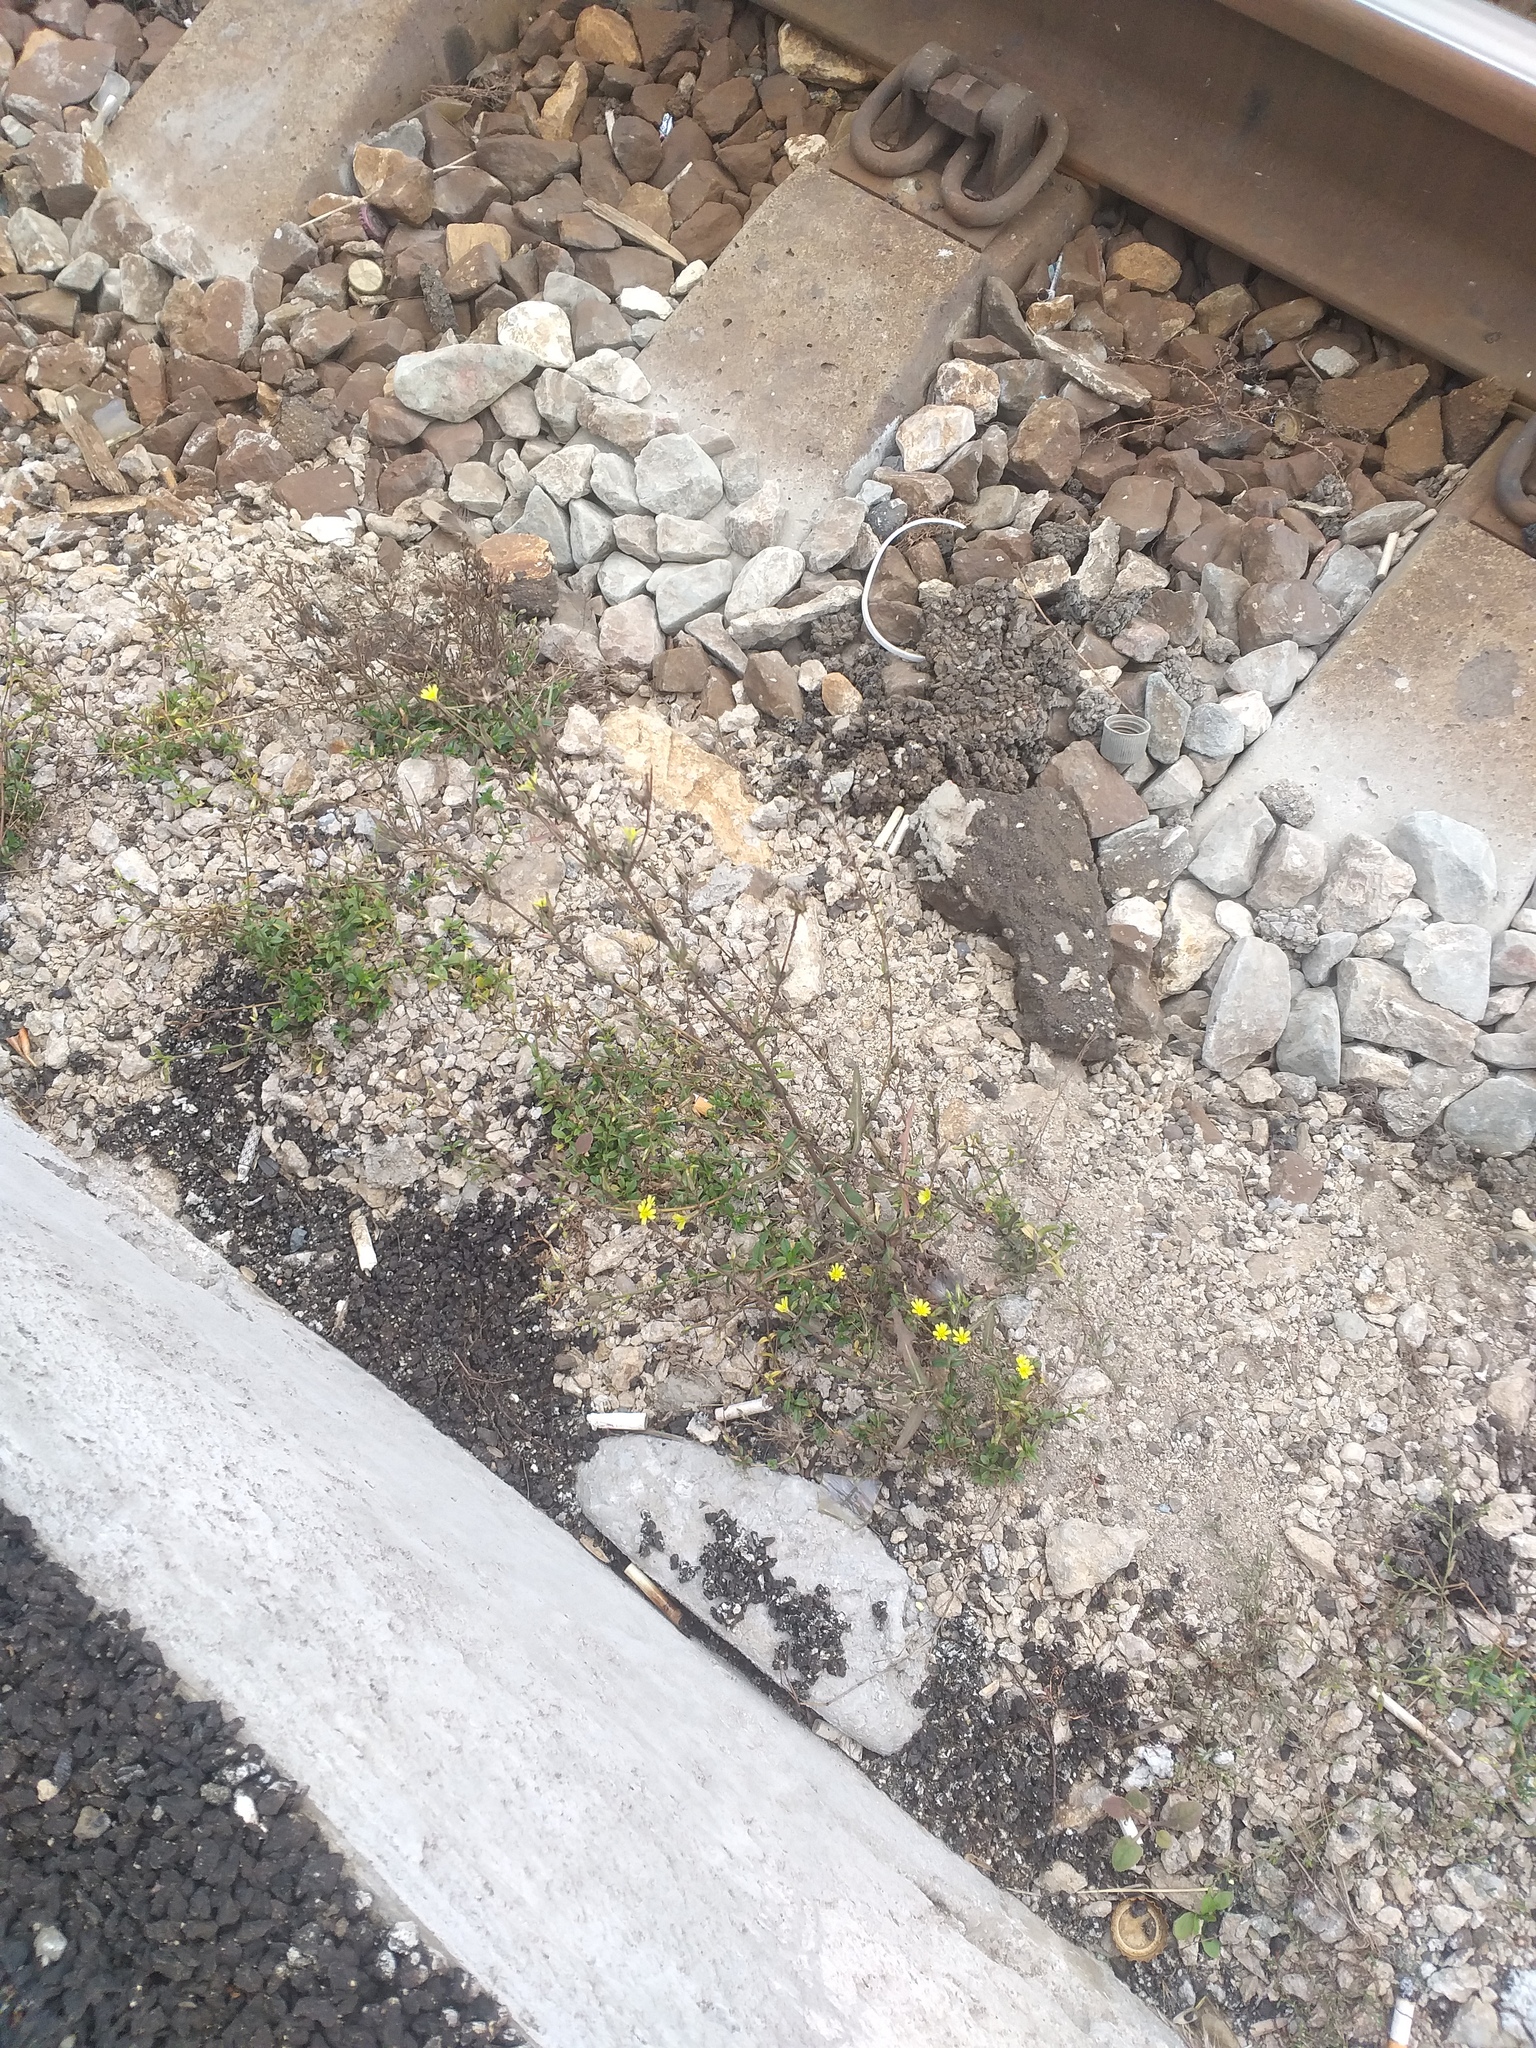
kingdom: Plantae
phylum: Tracheophyta
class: Magnoliopsida
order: Asterales
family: Asteraceae
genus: Lactuca
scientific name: Lactuca serriola
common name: Prickly lettuce
